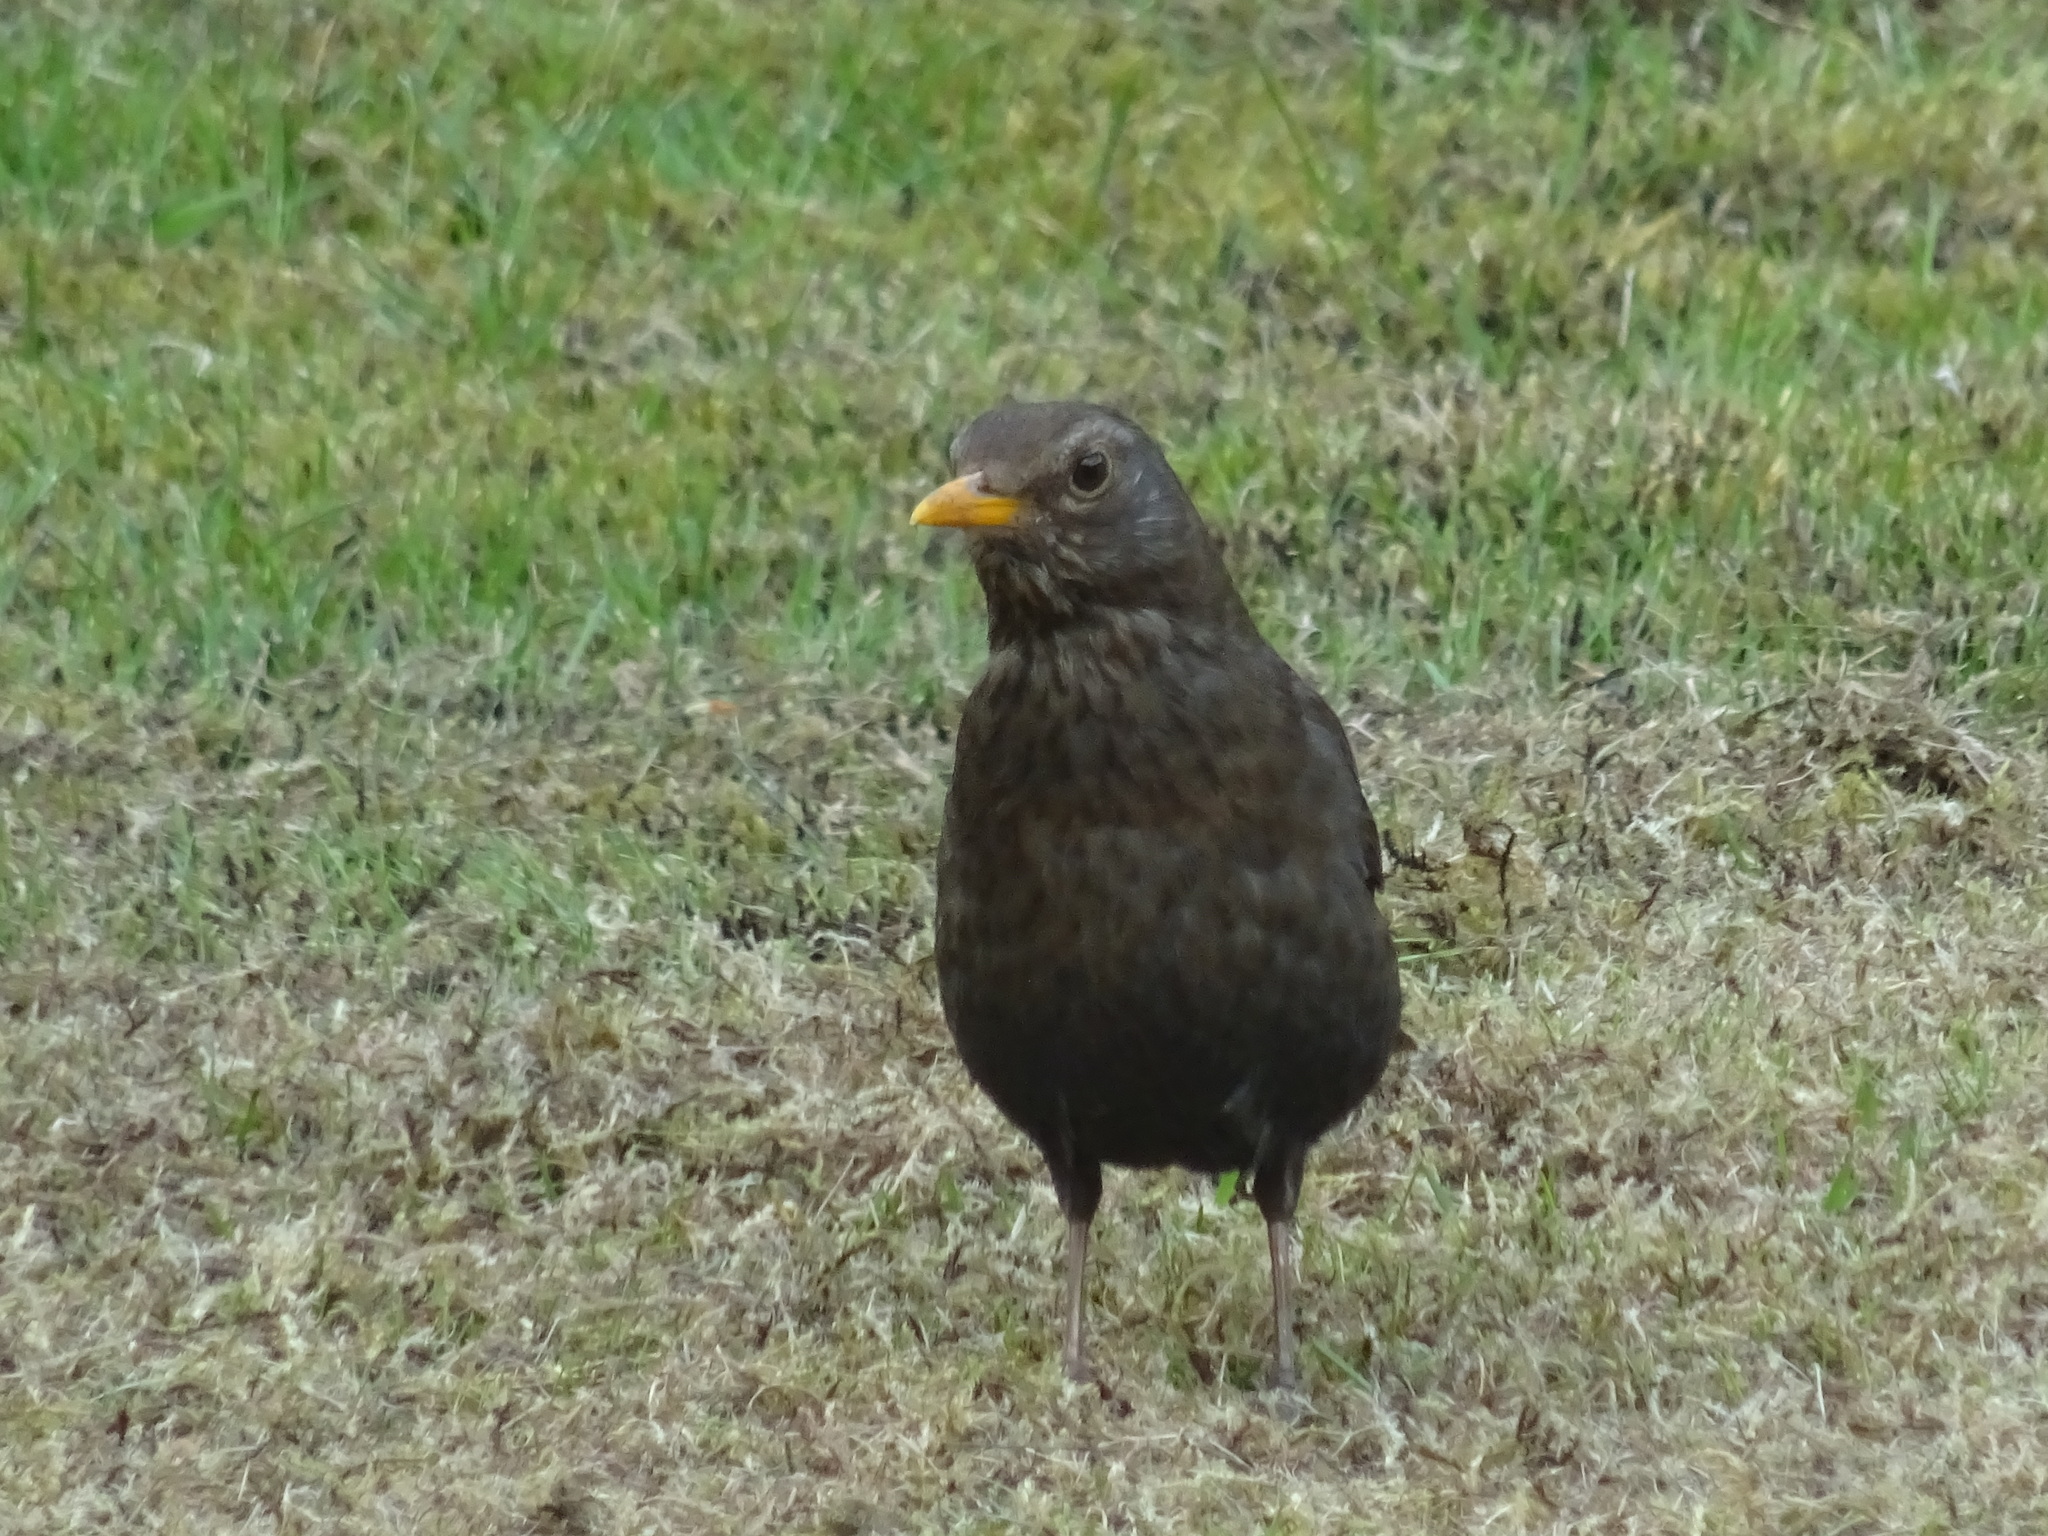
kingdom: Animalia
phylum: Chordata
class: Aves
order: Passeriformes
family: Turdidae
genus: Turdus
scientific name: Turdus merula
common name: Common blackbird
